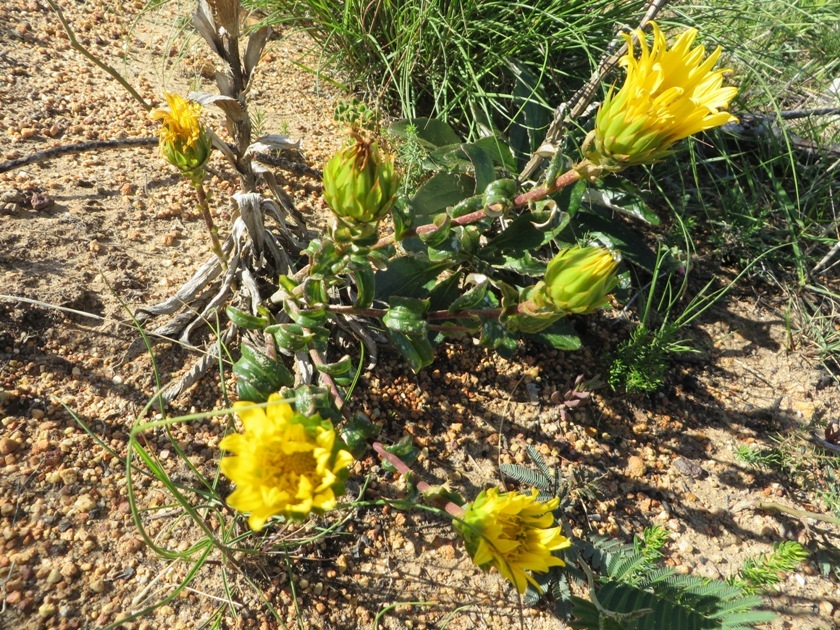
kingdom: Plantae
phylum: Tracheophyta
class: Magnoliopsida
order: Asterales
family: Asteraceae
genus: Berkheya
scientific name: Berkheya herbacea
